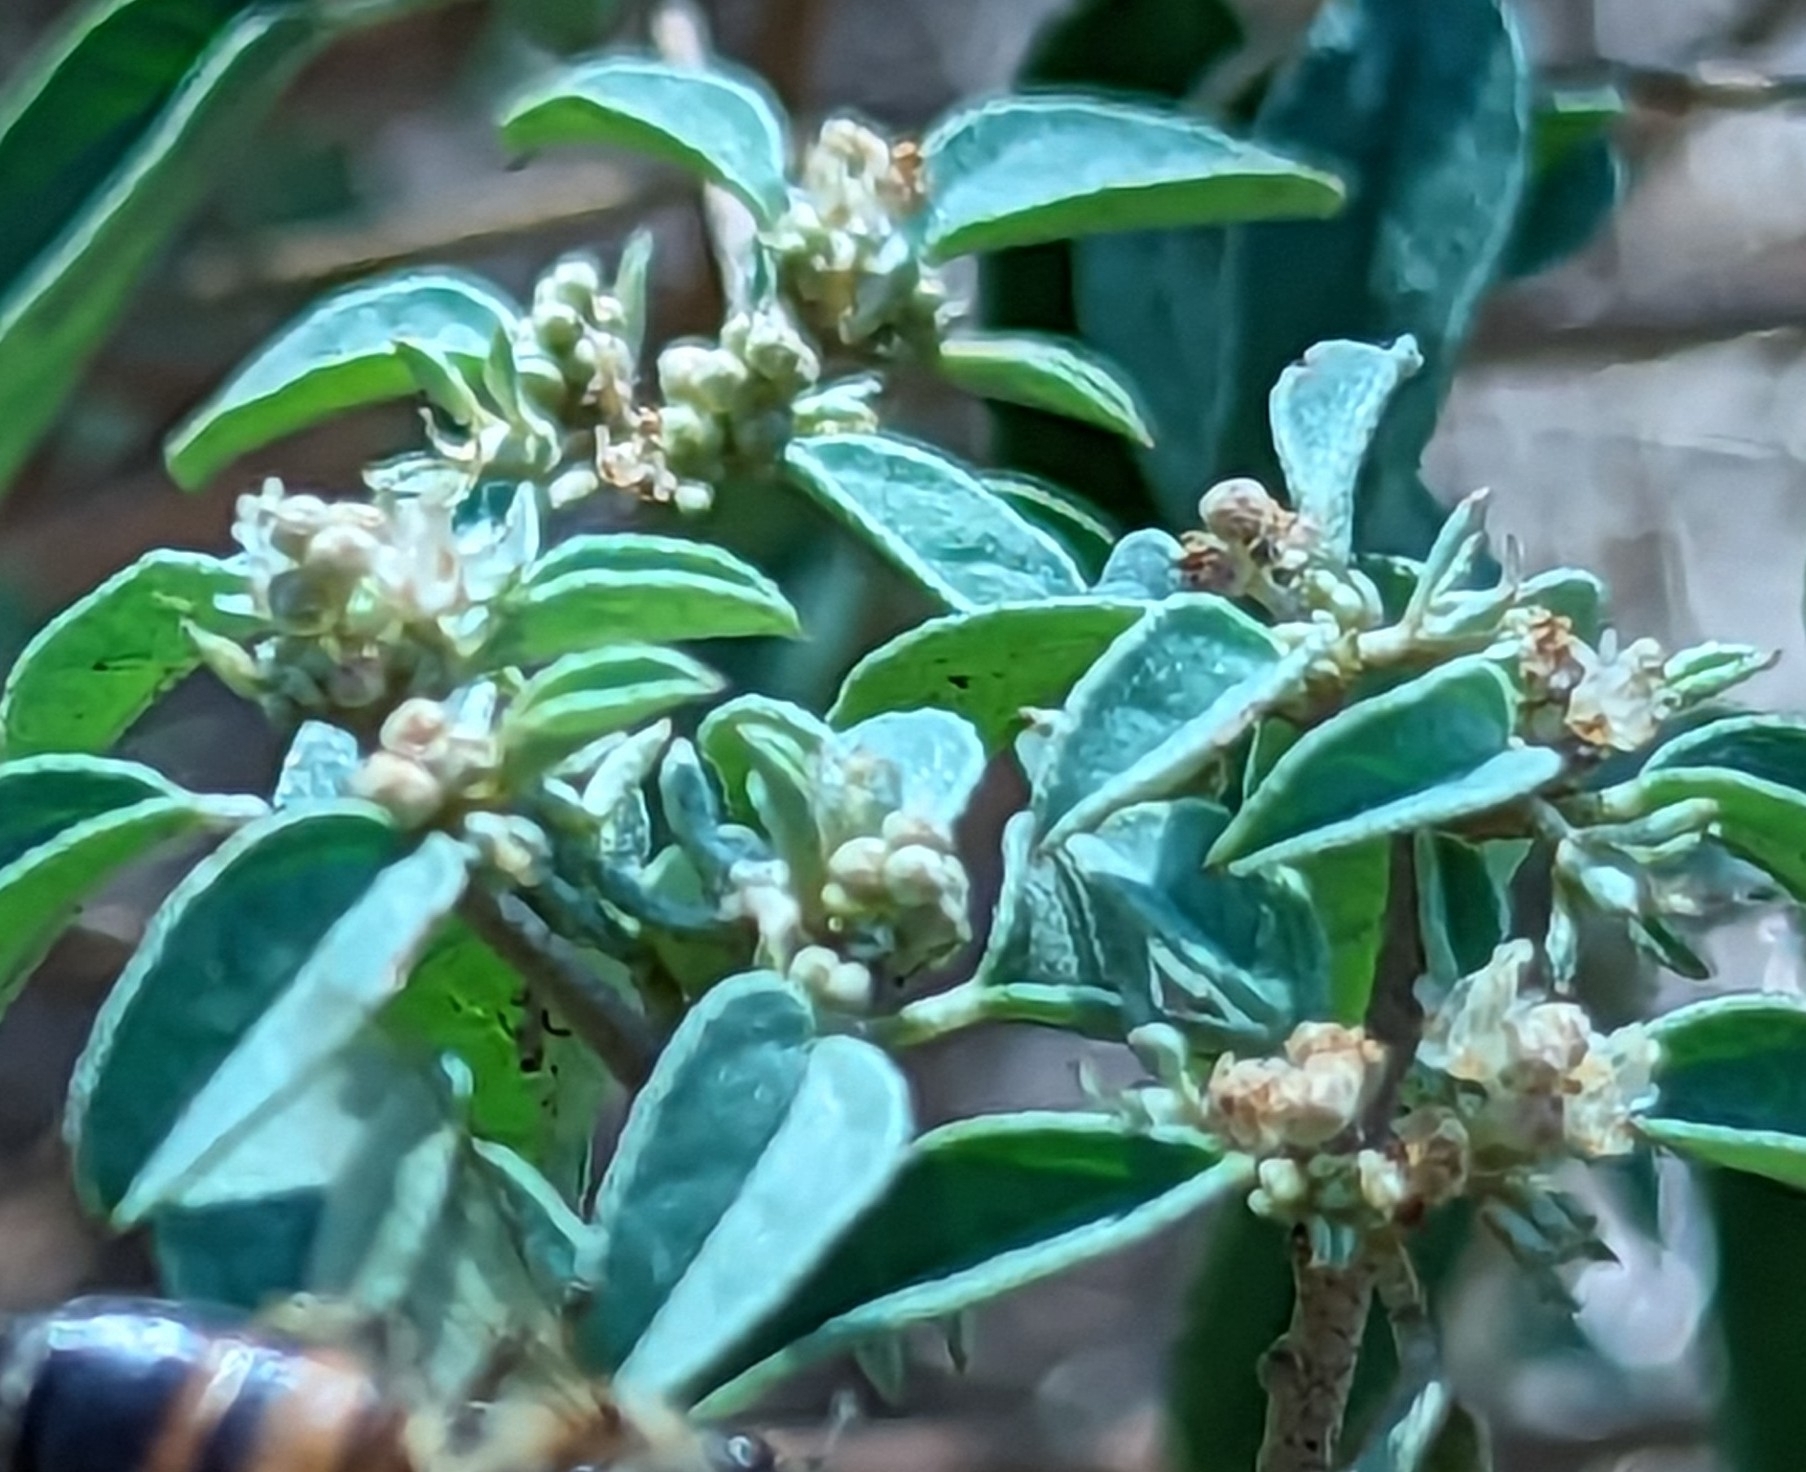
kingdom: Plantae
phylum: Tracheophyta
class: Magnoliopsida
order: Malpighiales
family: Euphorbiaceae
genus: Croton
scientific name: Croton monanthogynus
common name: One-seed croton
